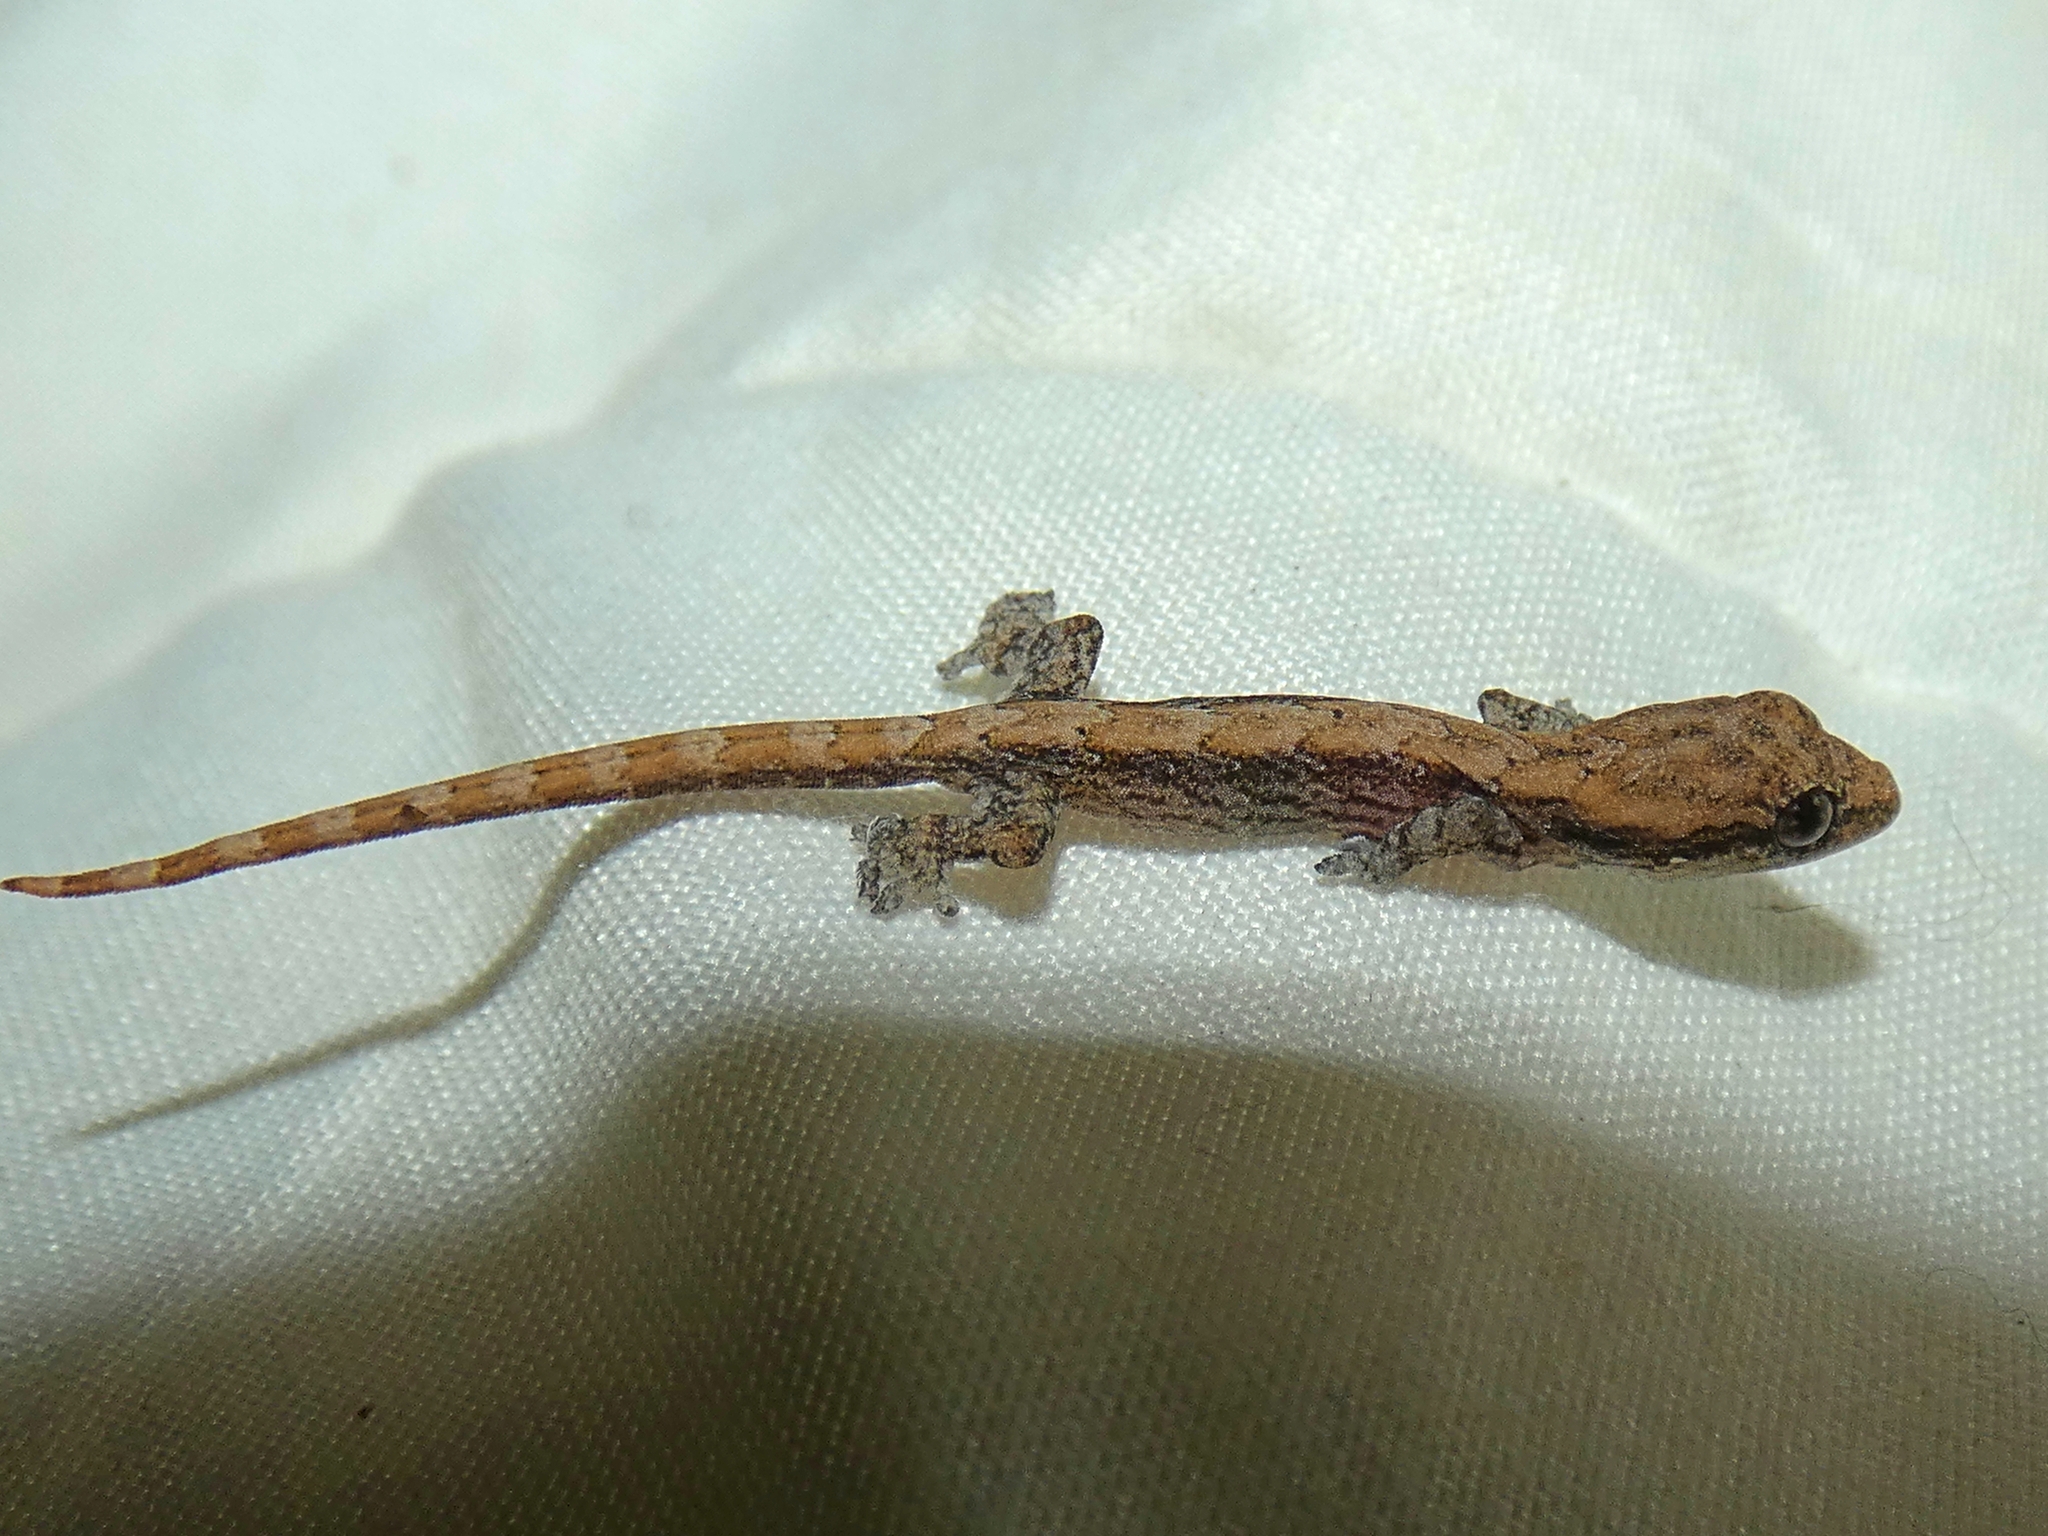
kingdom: Animalia
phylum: Chordata
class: Squamata
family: Gekkonidae
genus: Lepidodactylus
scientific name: Lepidodactylus lugubris
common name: Mourning gecko
